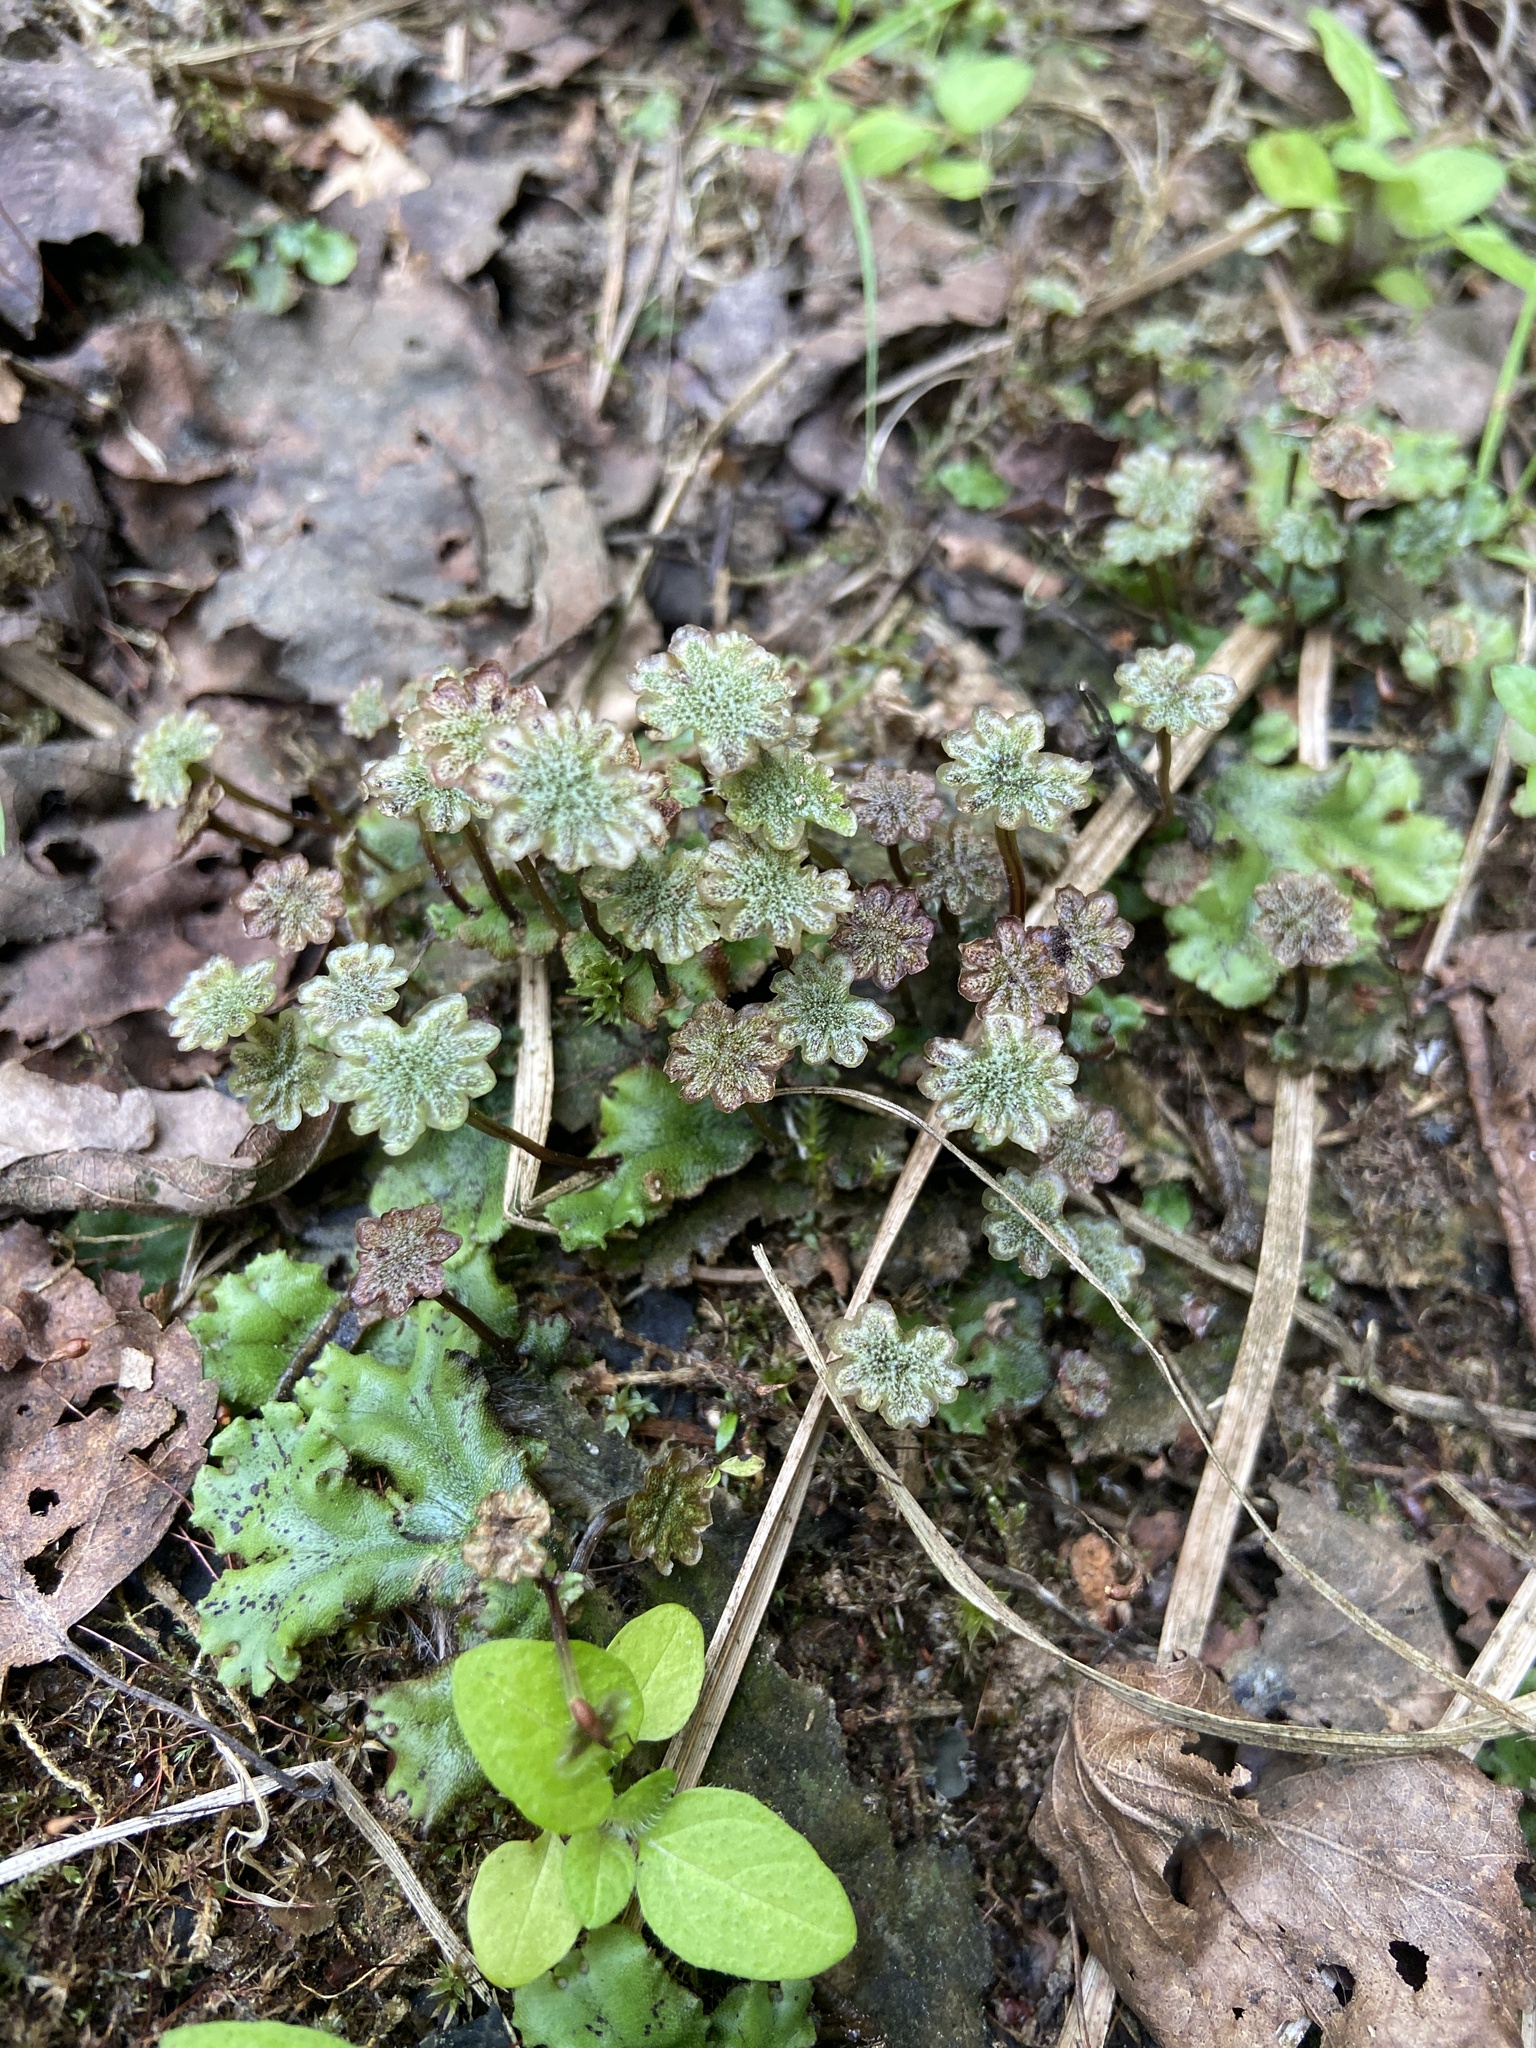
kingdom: Plantae
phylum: Marchantiophyta
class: Marchantiopsida
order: Marchantiales
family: Marchantiaceae
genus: Marchantia
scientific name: Marchantia polymorpha
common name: Common liverwort
